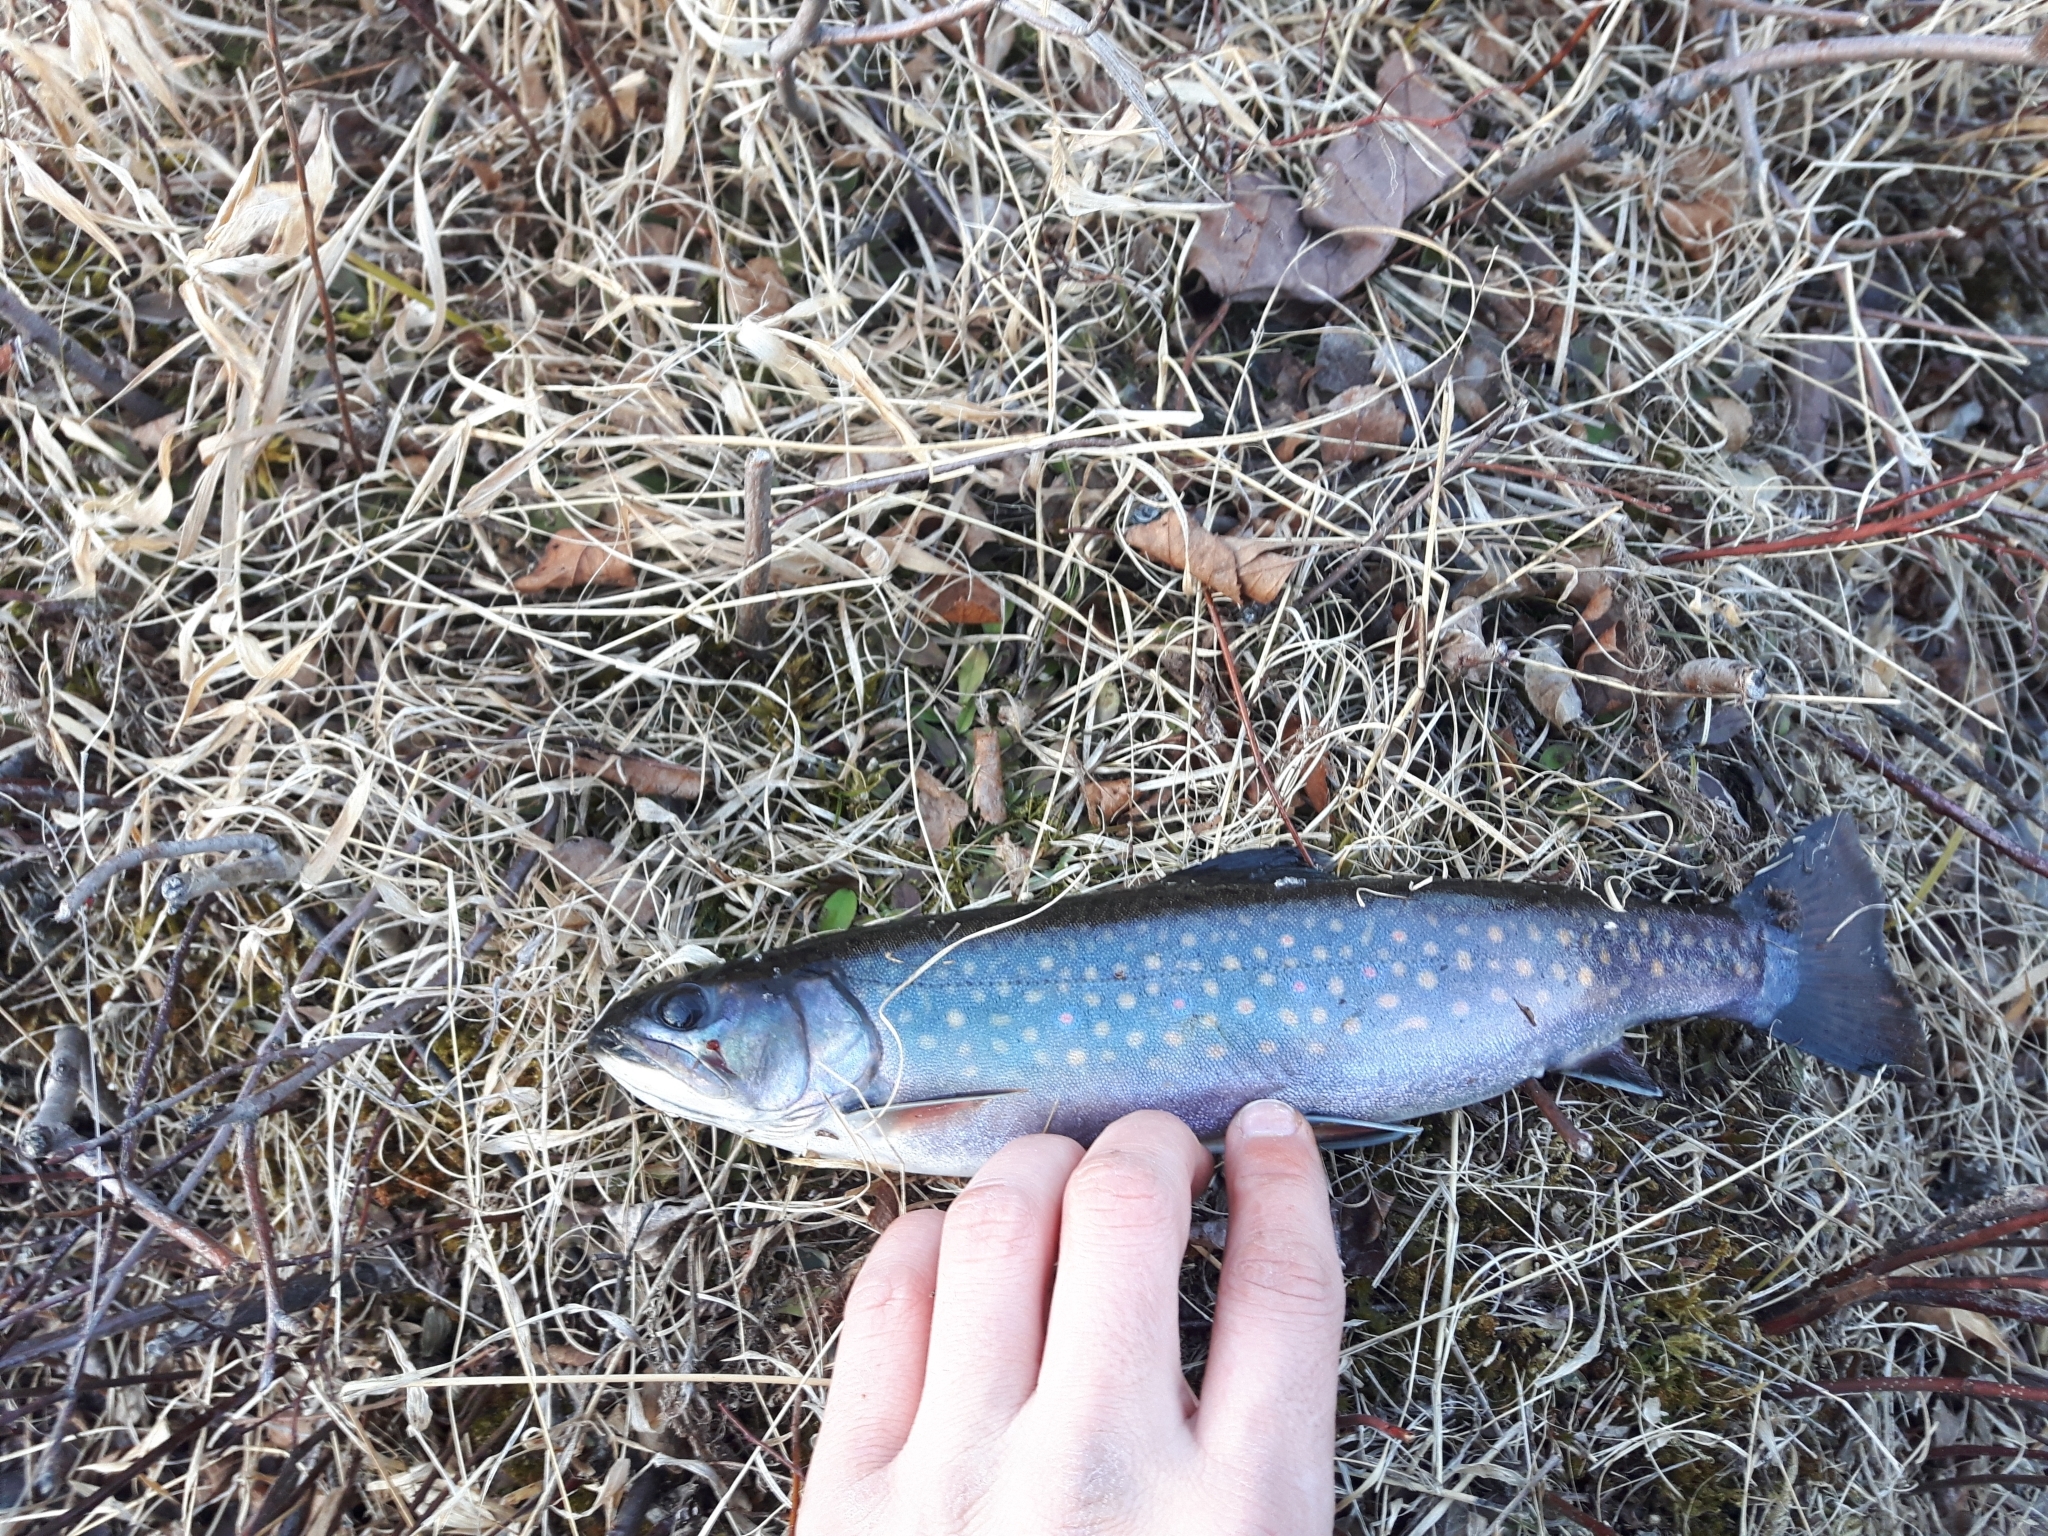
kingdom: Animalia
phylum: Chordata
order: Salmoniformes
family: Salmonidae
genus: Salvelinus
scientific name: Salvelinus fontinalis
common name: Brook trout
